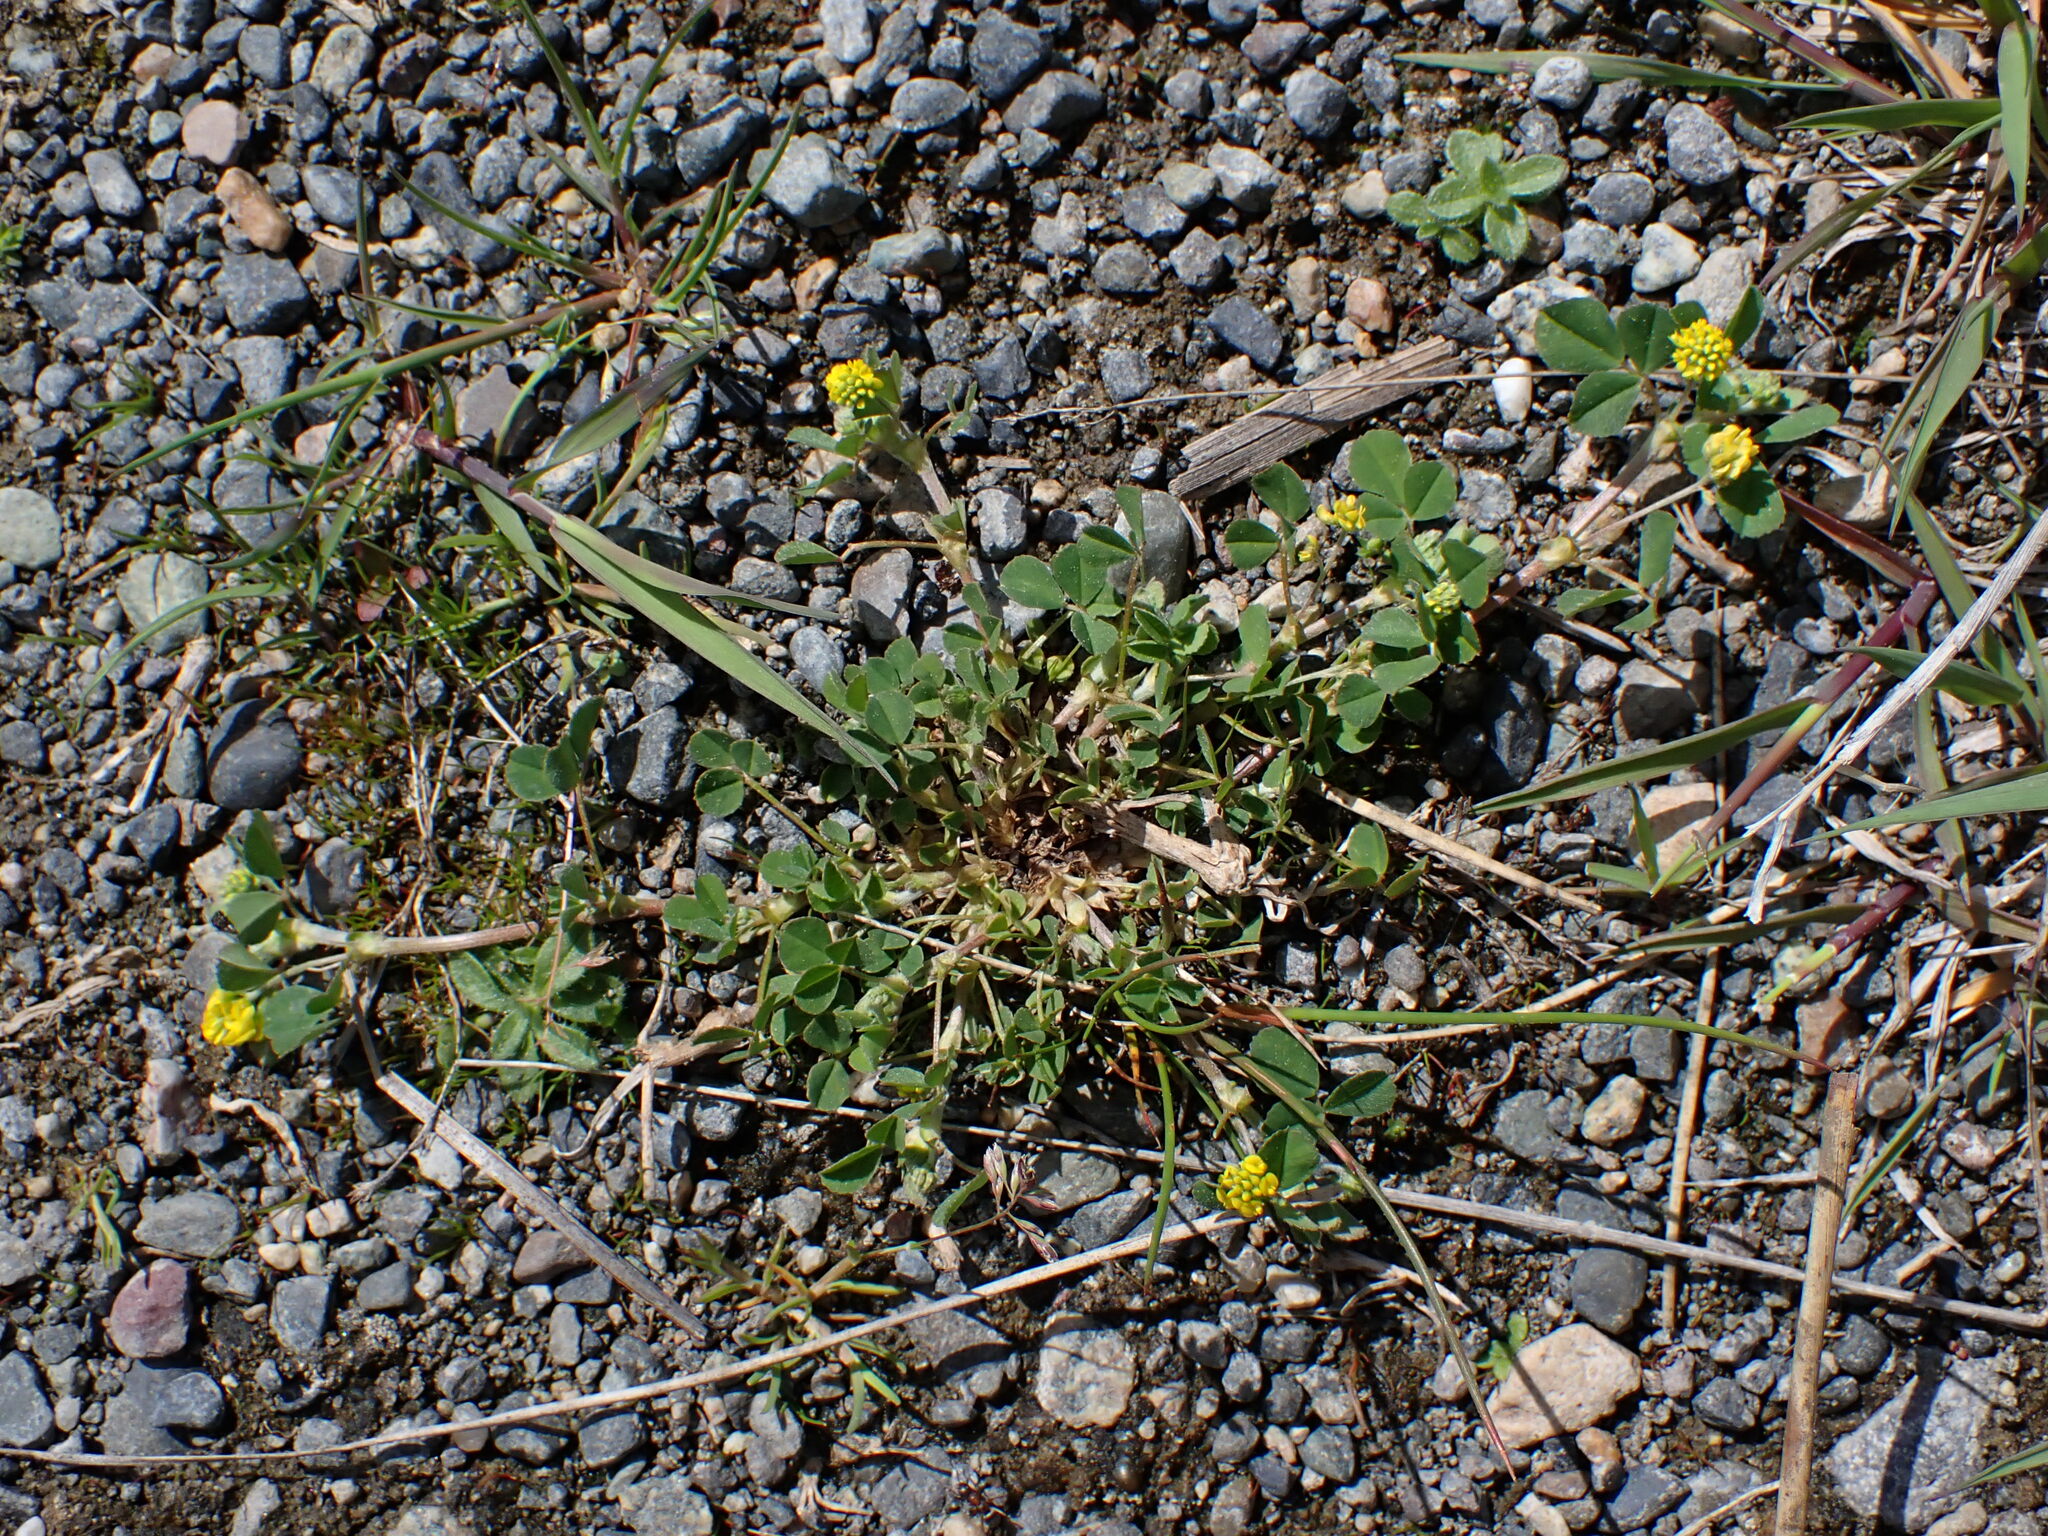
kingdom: Plantae
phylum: Tracheophyta
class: Magnoliopsida
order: Fabales
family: Fabaceae
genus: Medicago
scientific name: Medicago lupulina
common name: Black medick
